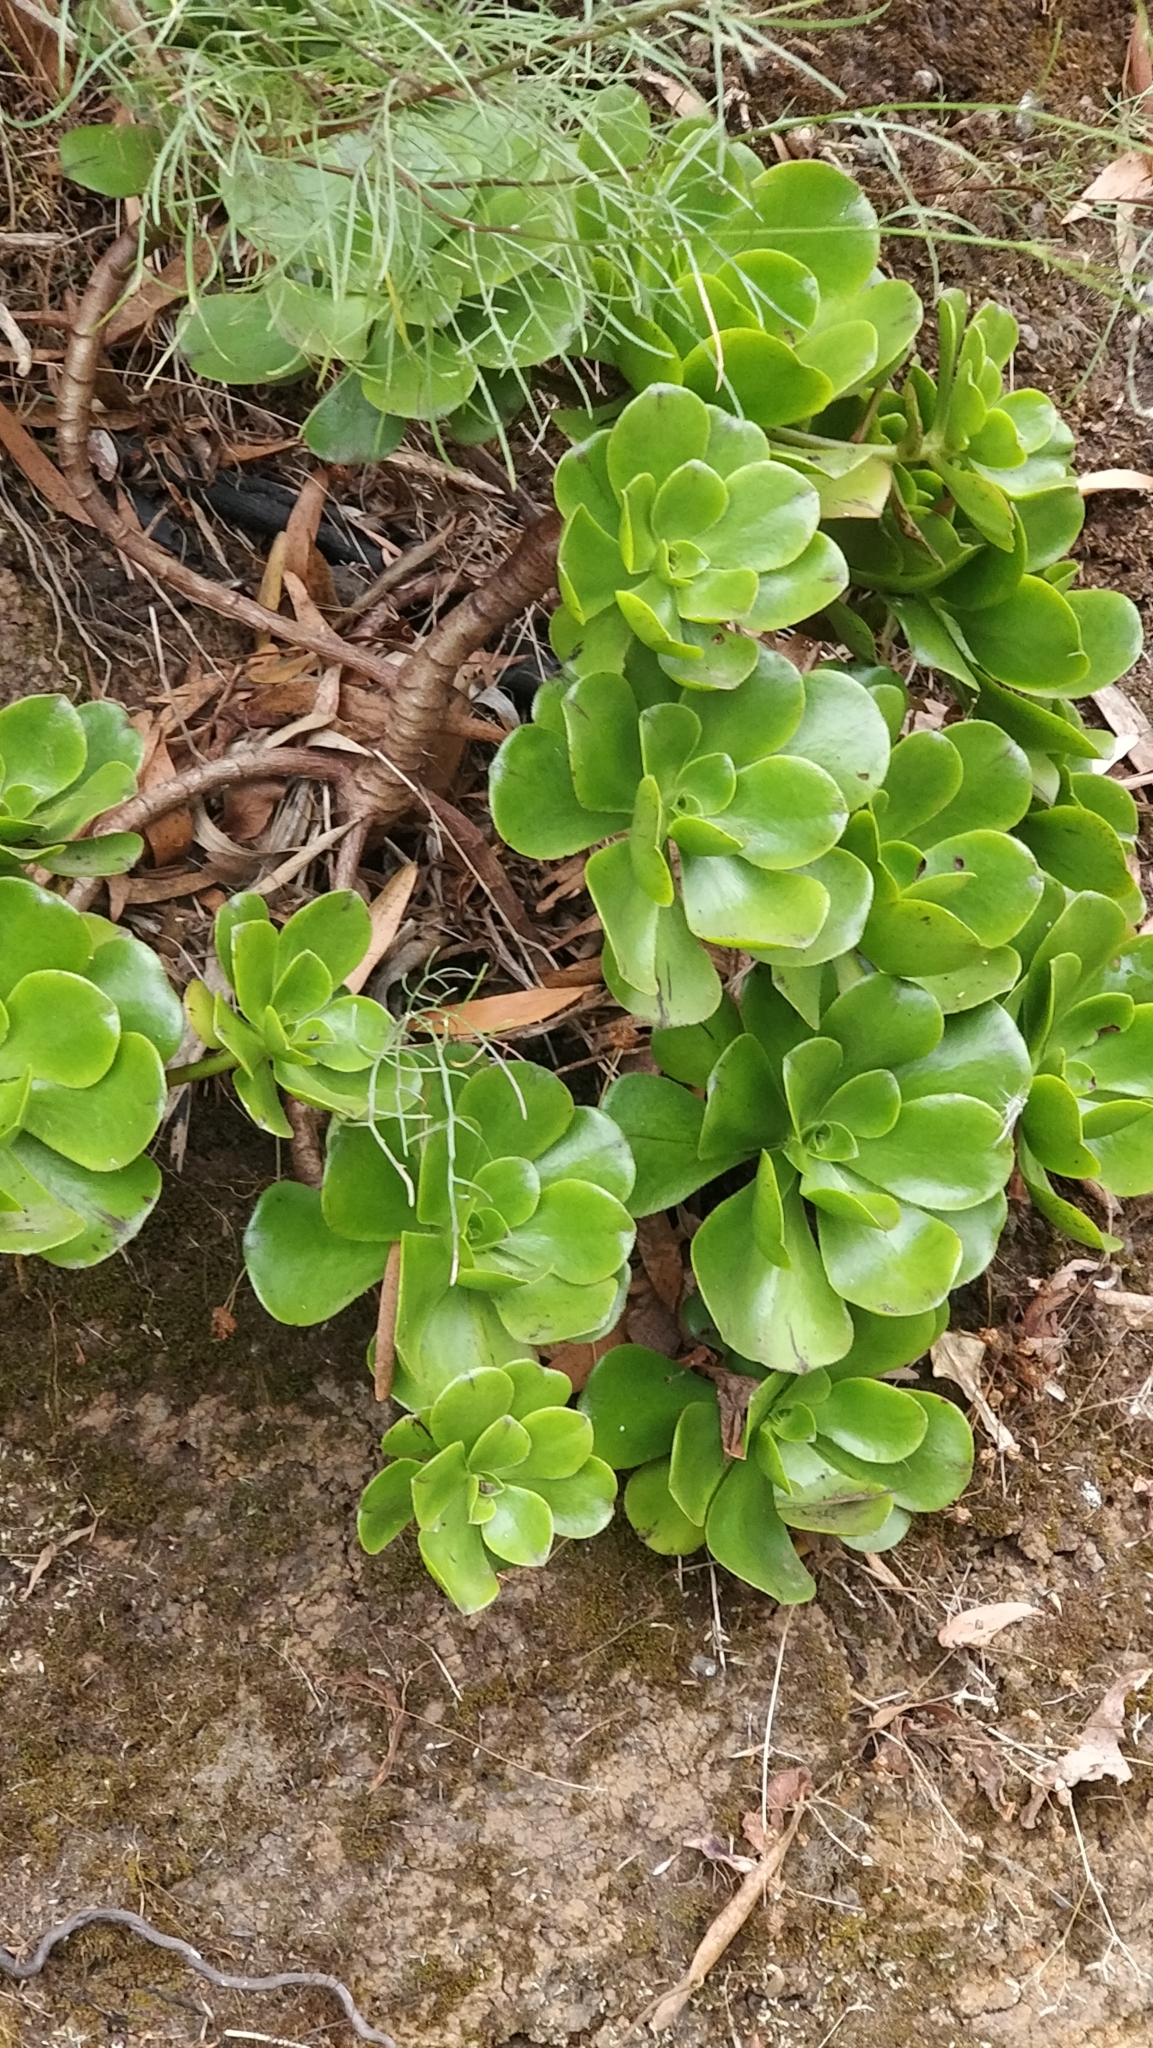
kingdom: Plantae
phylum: Tracheophyta
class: Magnoliopsida
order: Saxifragales
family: Crassulaceae
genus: Aeonium
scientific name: Aeonium glutinosum
